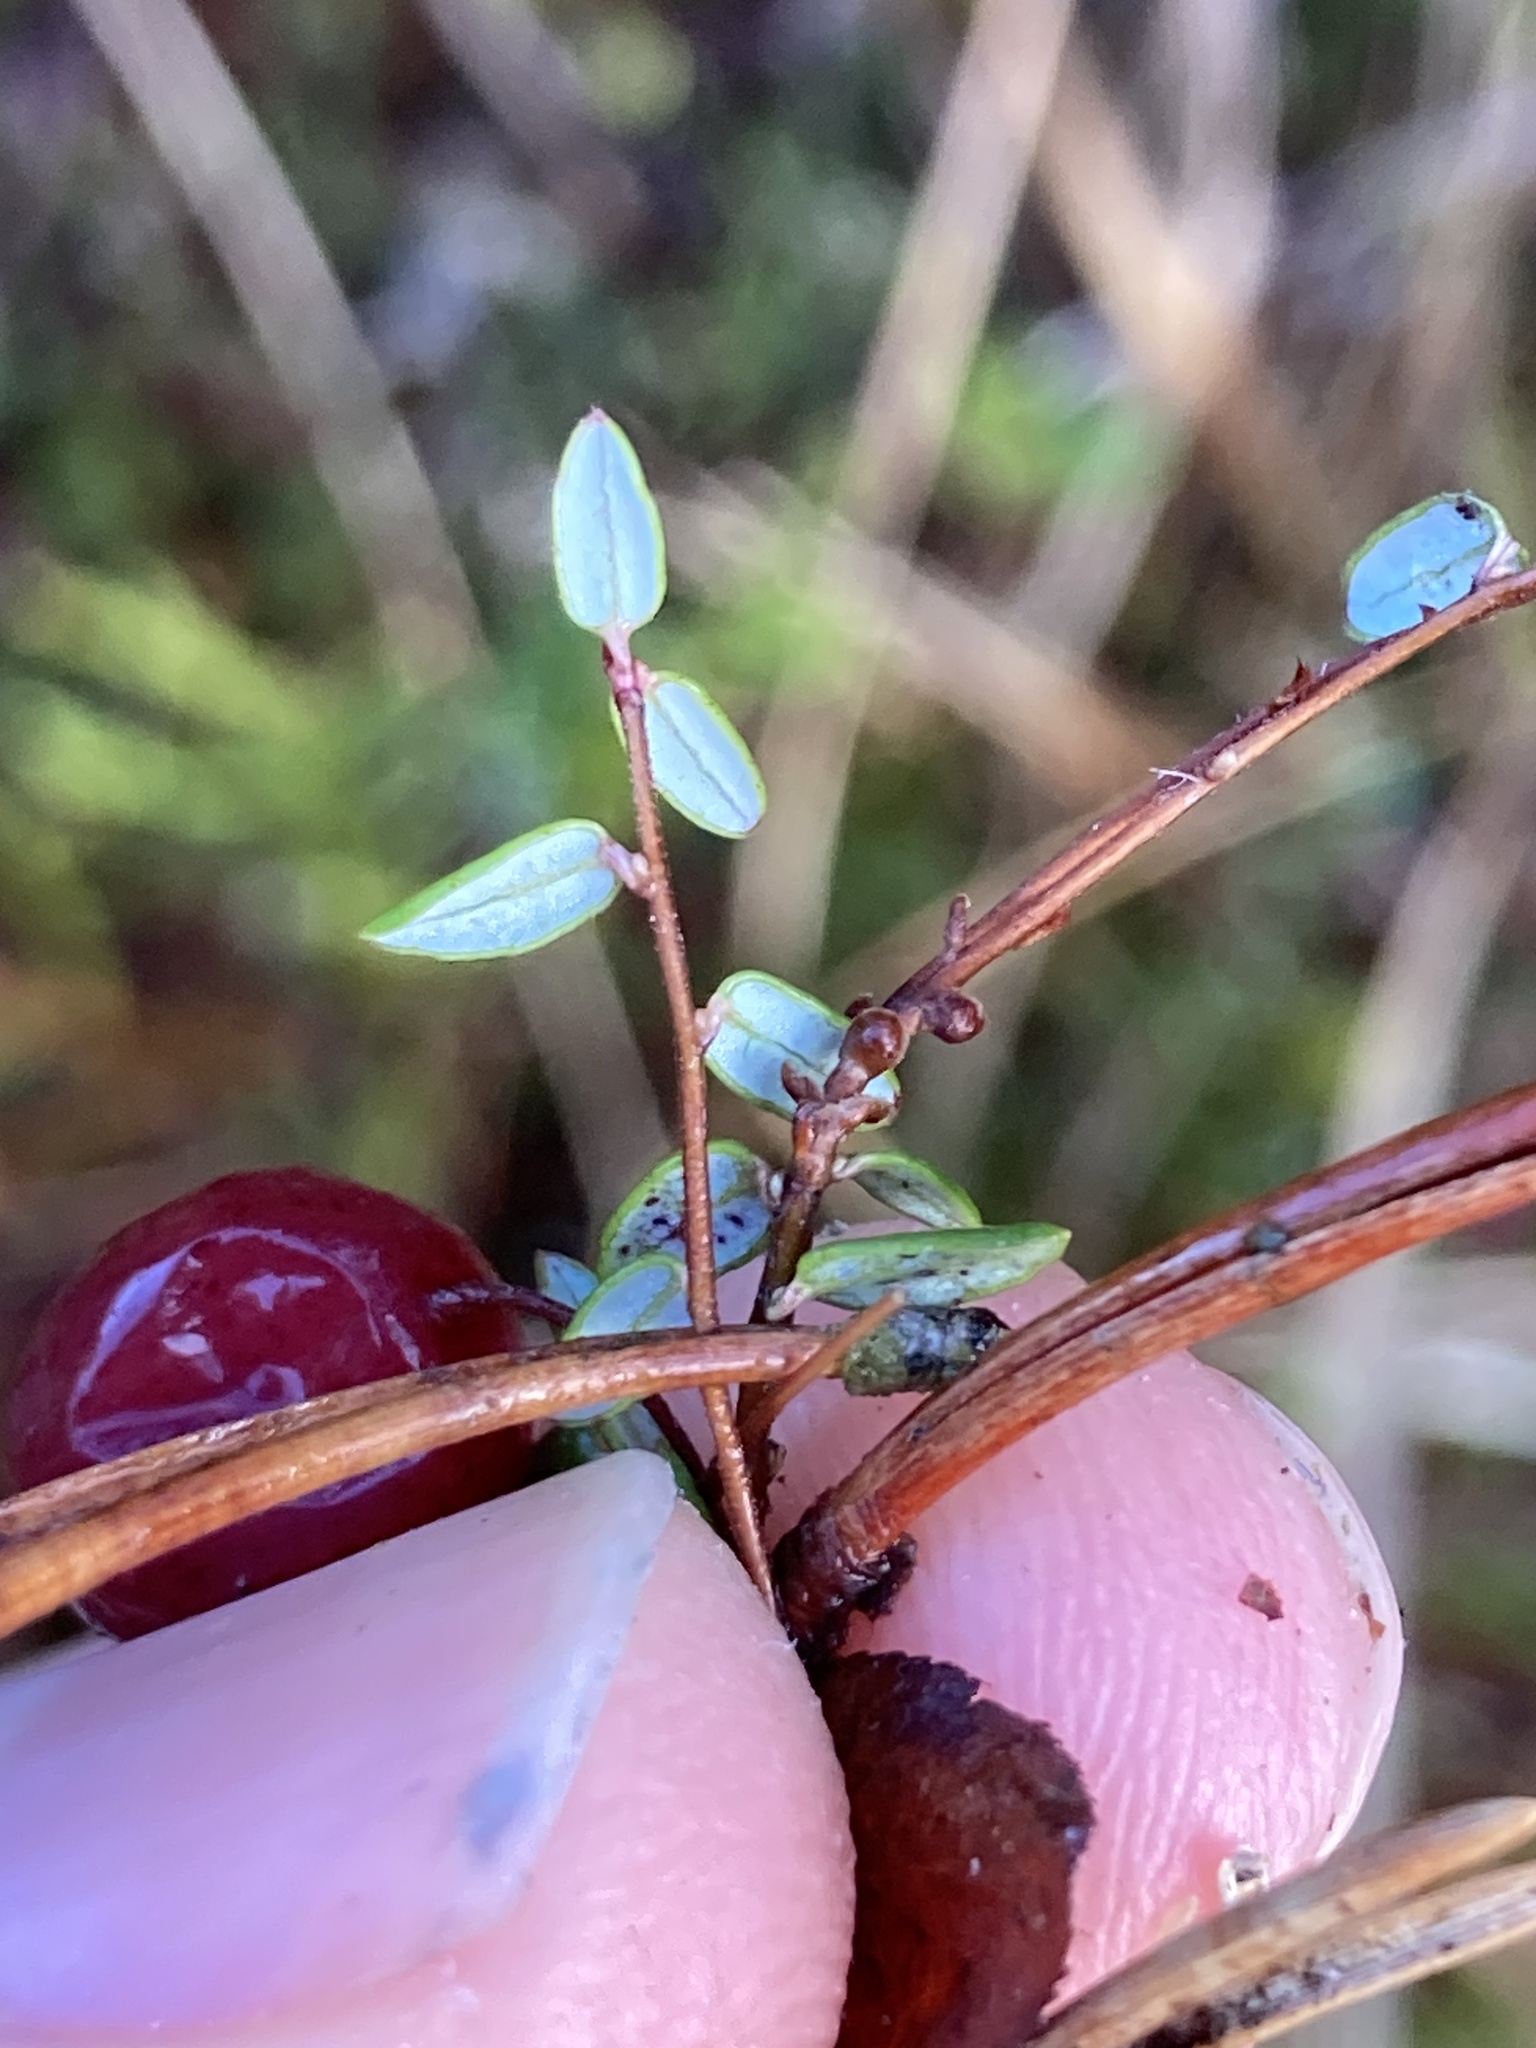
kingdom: Plantae
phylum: Tracheophyta
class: Magnoliopsida
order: Ericales
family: Ericaceae
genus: Vaccinium
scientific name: Vaccinium oxycoccos
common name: Cranberry
